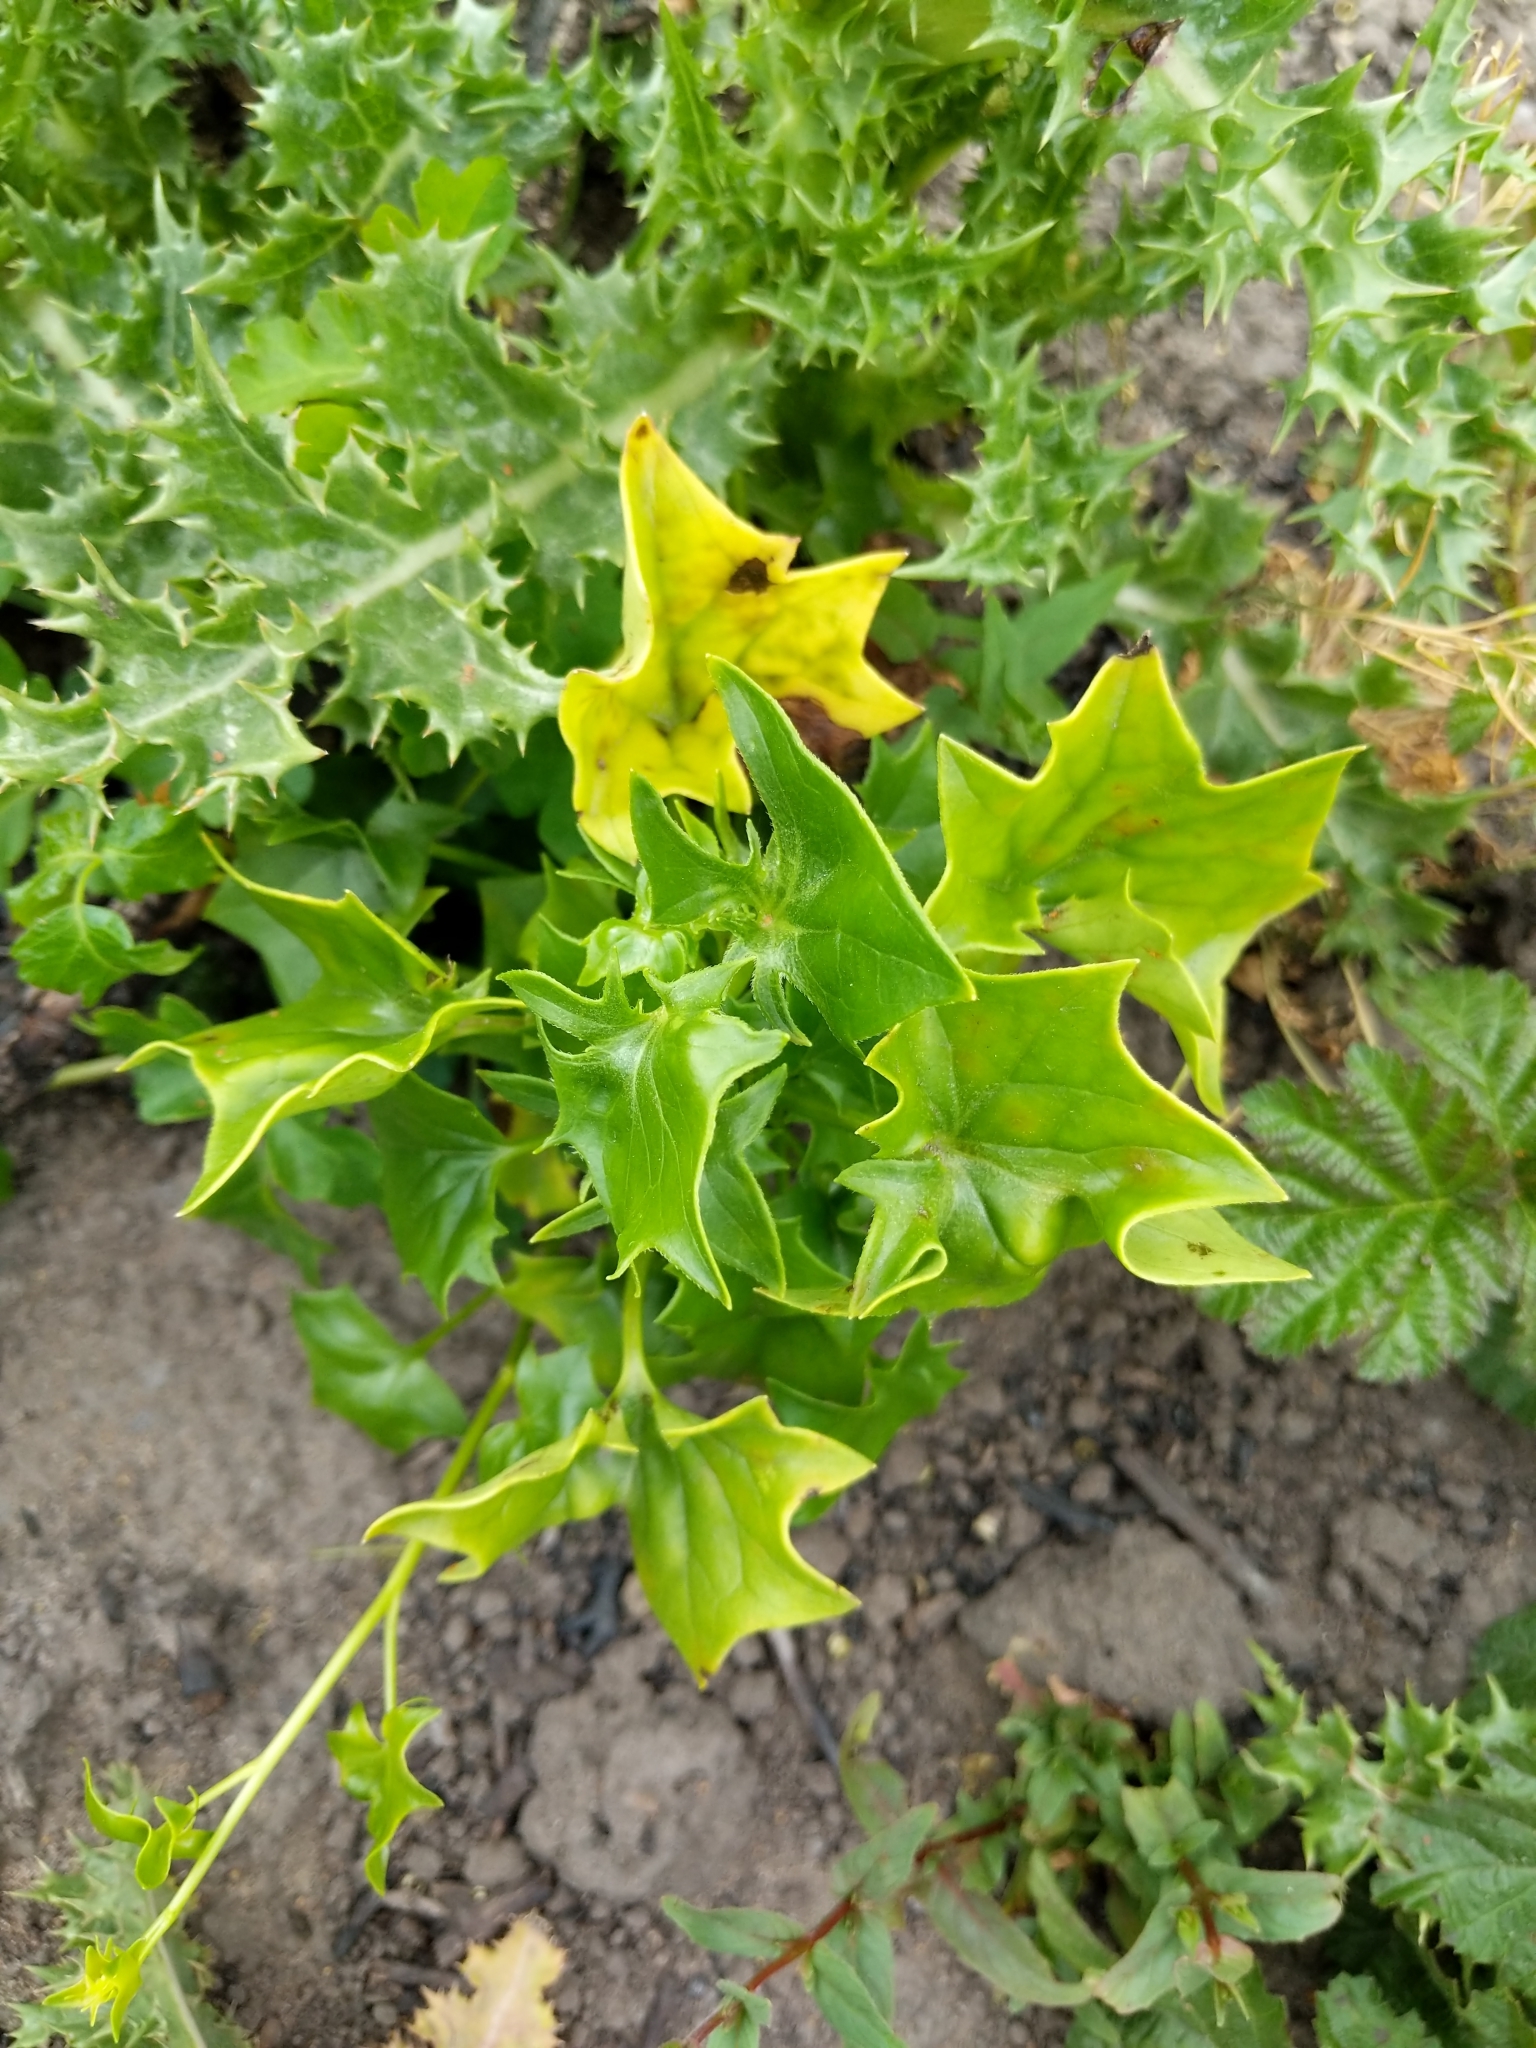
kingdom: Plantae
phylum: Tracheophyta
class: Magnoliopsida
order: Asterales
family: Asteraceae
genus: Delairea
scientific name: Delairea odorata
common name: Cape-ivy
